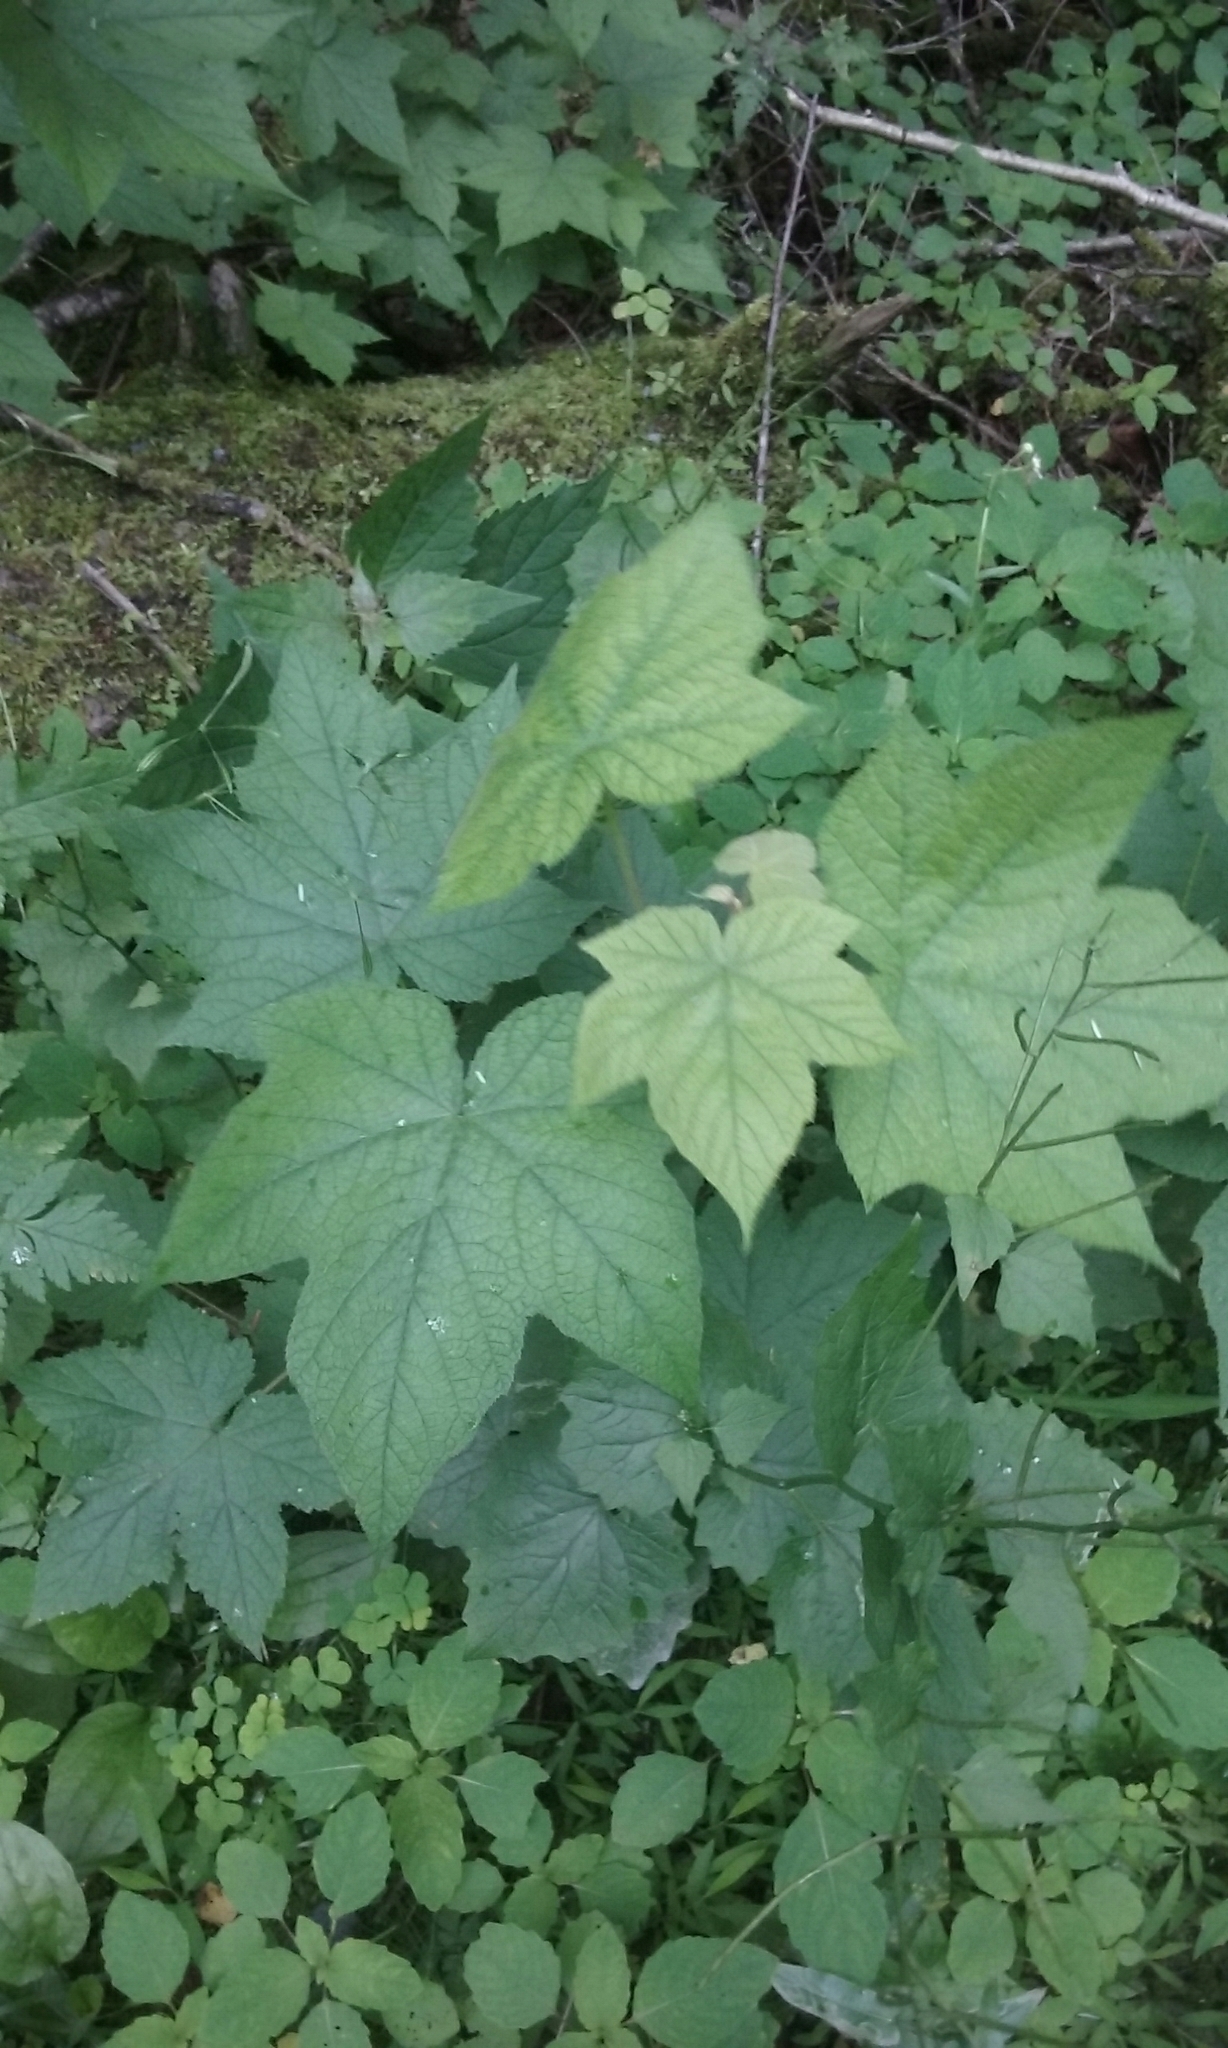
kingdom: Plantae
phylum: Tracheophyta
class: Magnoliopsida
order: Rosales
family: Rosaceae
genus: Rubus
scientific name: Rubus odoratus
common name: Purple-flowered raspberry
